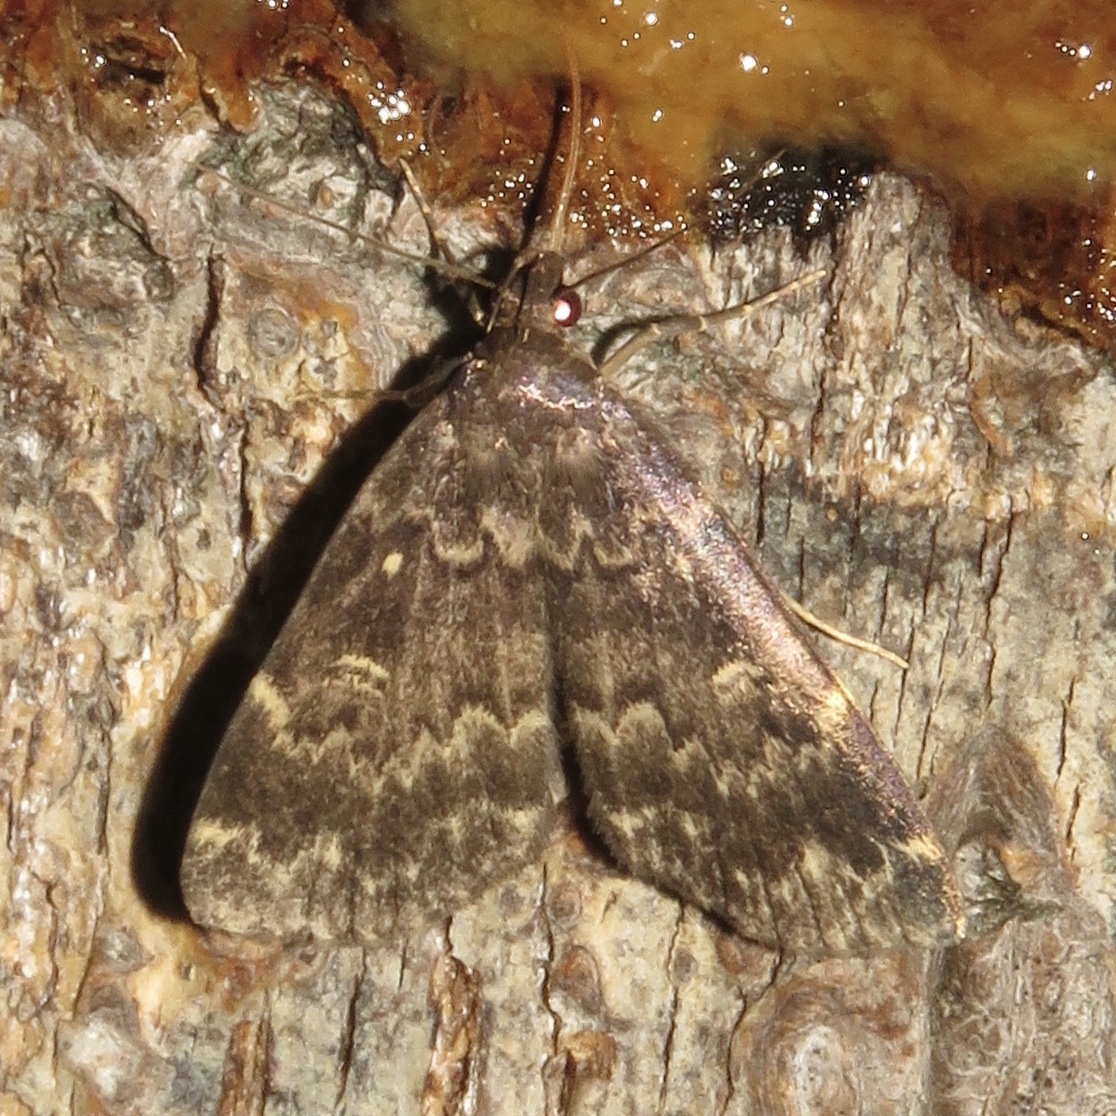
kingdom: Animalia
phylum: Arthropoda
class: Insecta
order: Lepidoptera
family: Erebidae
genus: Idia
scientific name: Idia lubricalis
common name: Twin-striped tabby
